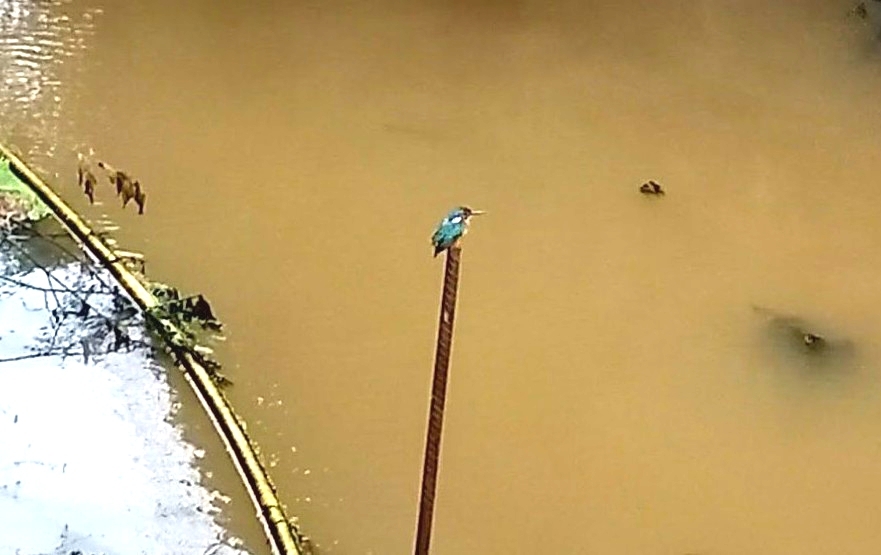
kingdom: Animalia
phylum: Chordata
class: Aves
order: Coraciiformes
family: Alcedinidae
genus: Alcedo
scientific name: Alcedo atthis
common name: Common kingfisher
